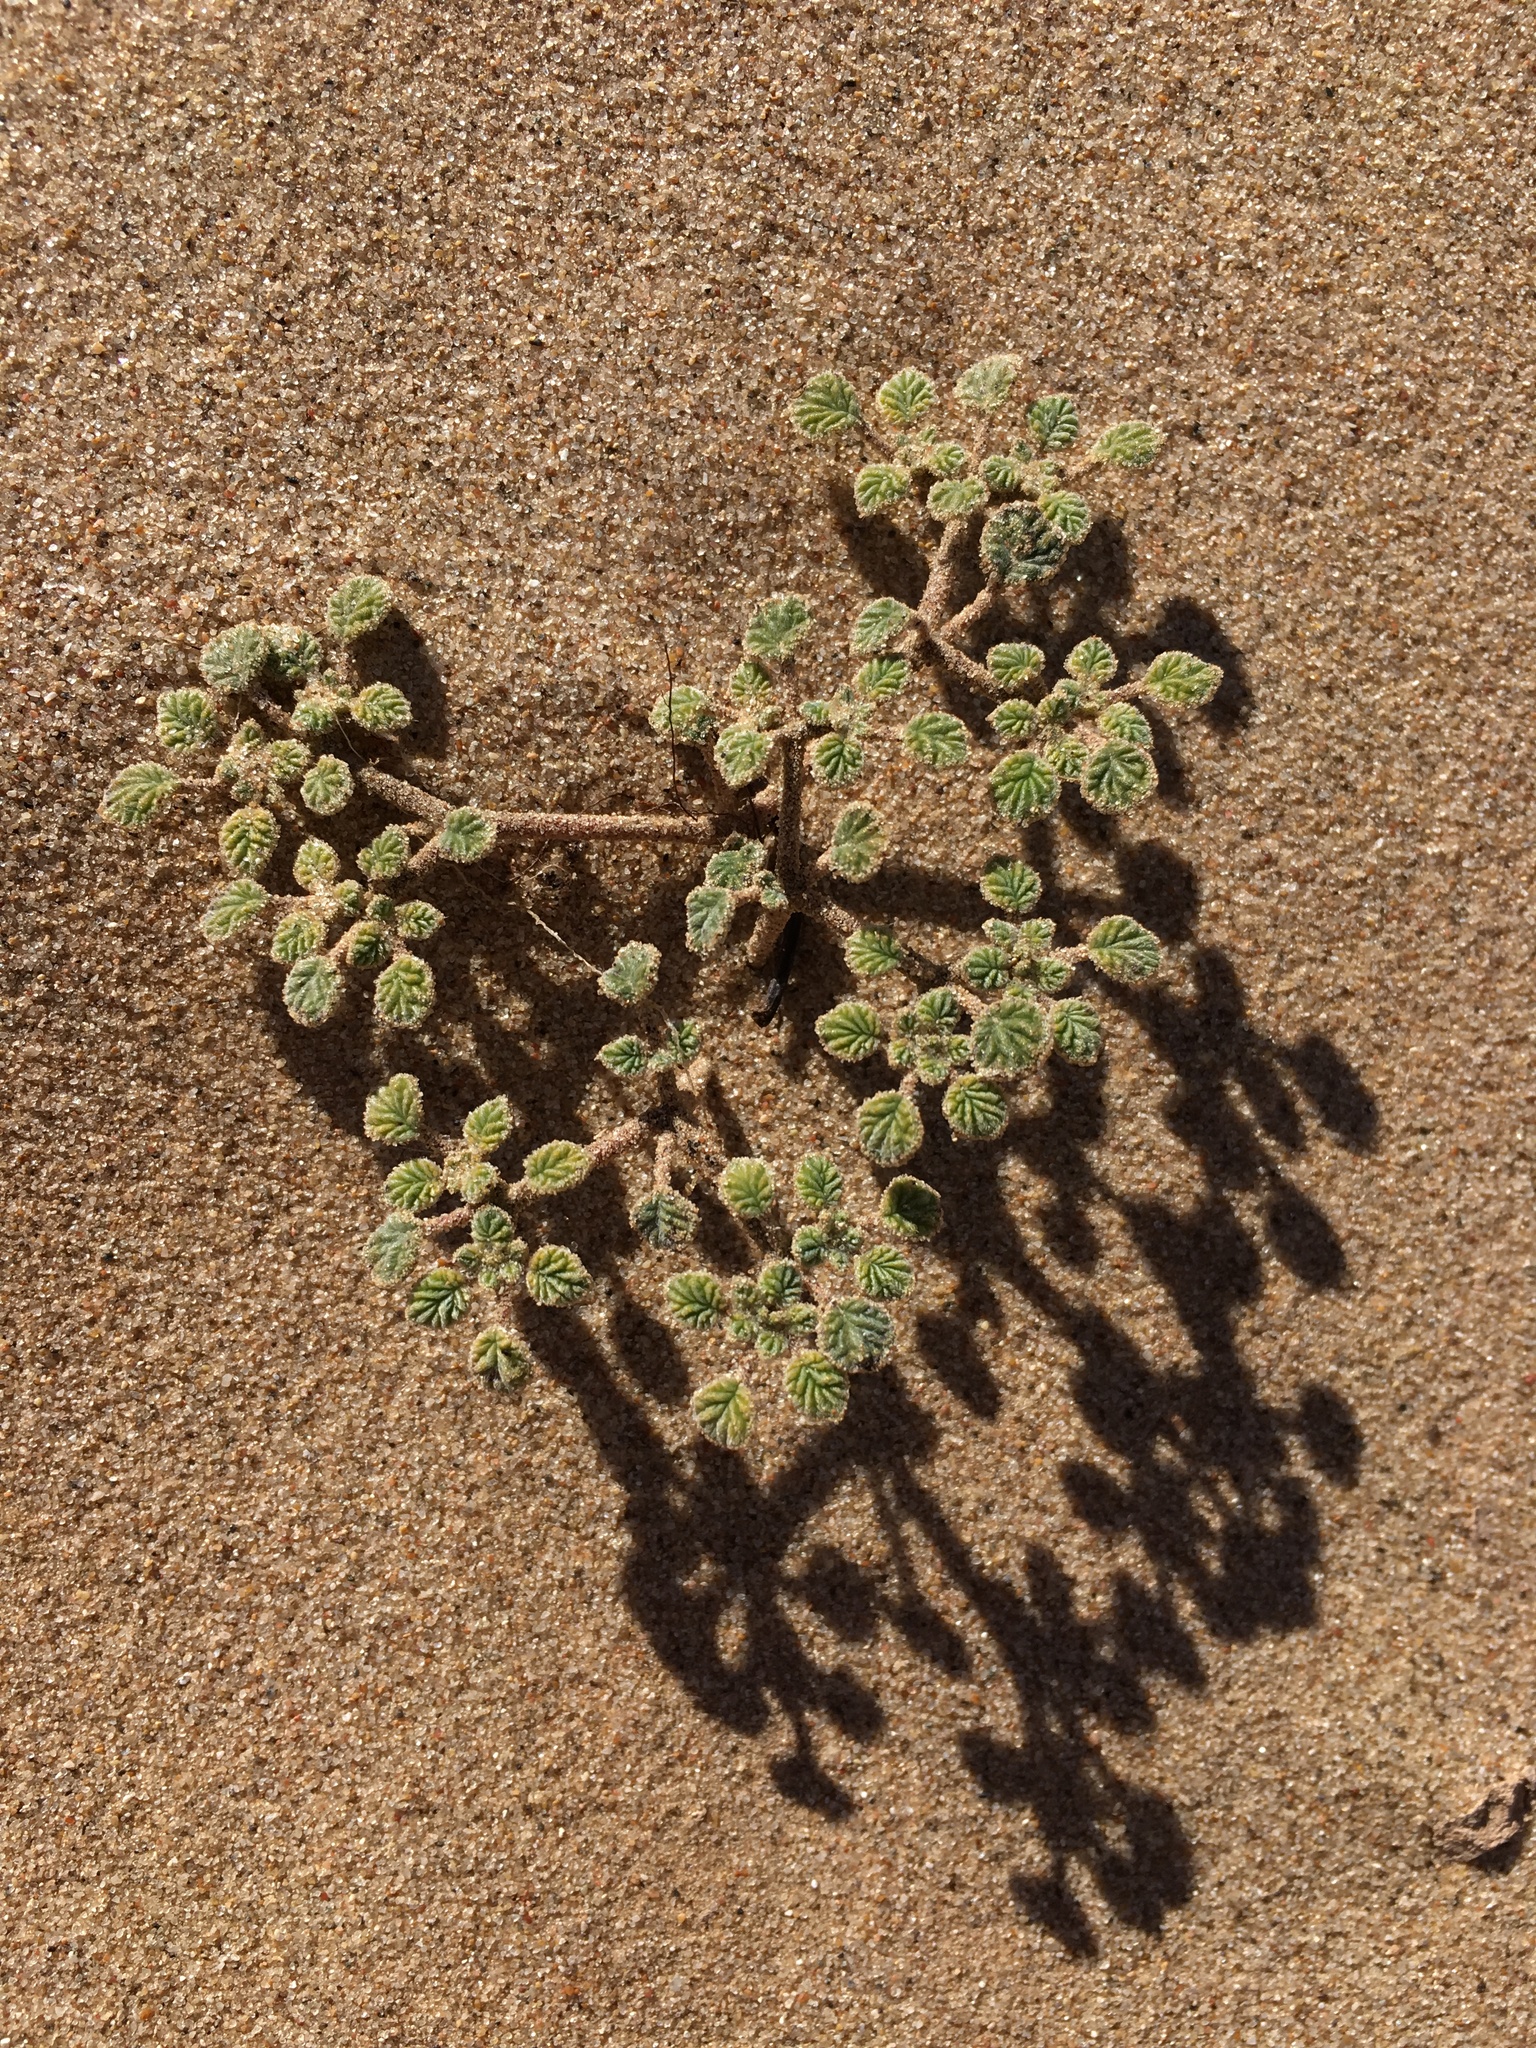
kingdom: Plantae
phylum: Tracheophyta
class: Magnoliopsida
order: Boraginales
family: Ehretiaceae
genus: Tiquilia
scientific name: Tiquilia plicata
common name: Fan-leaf tiquilia
